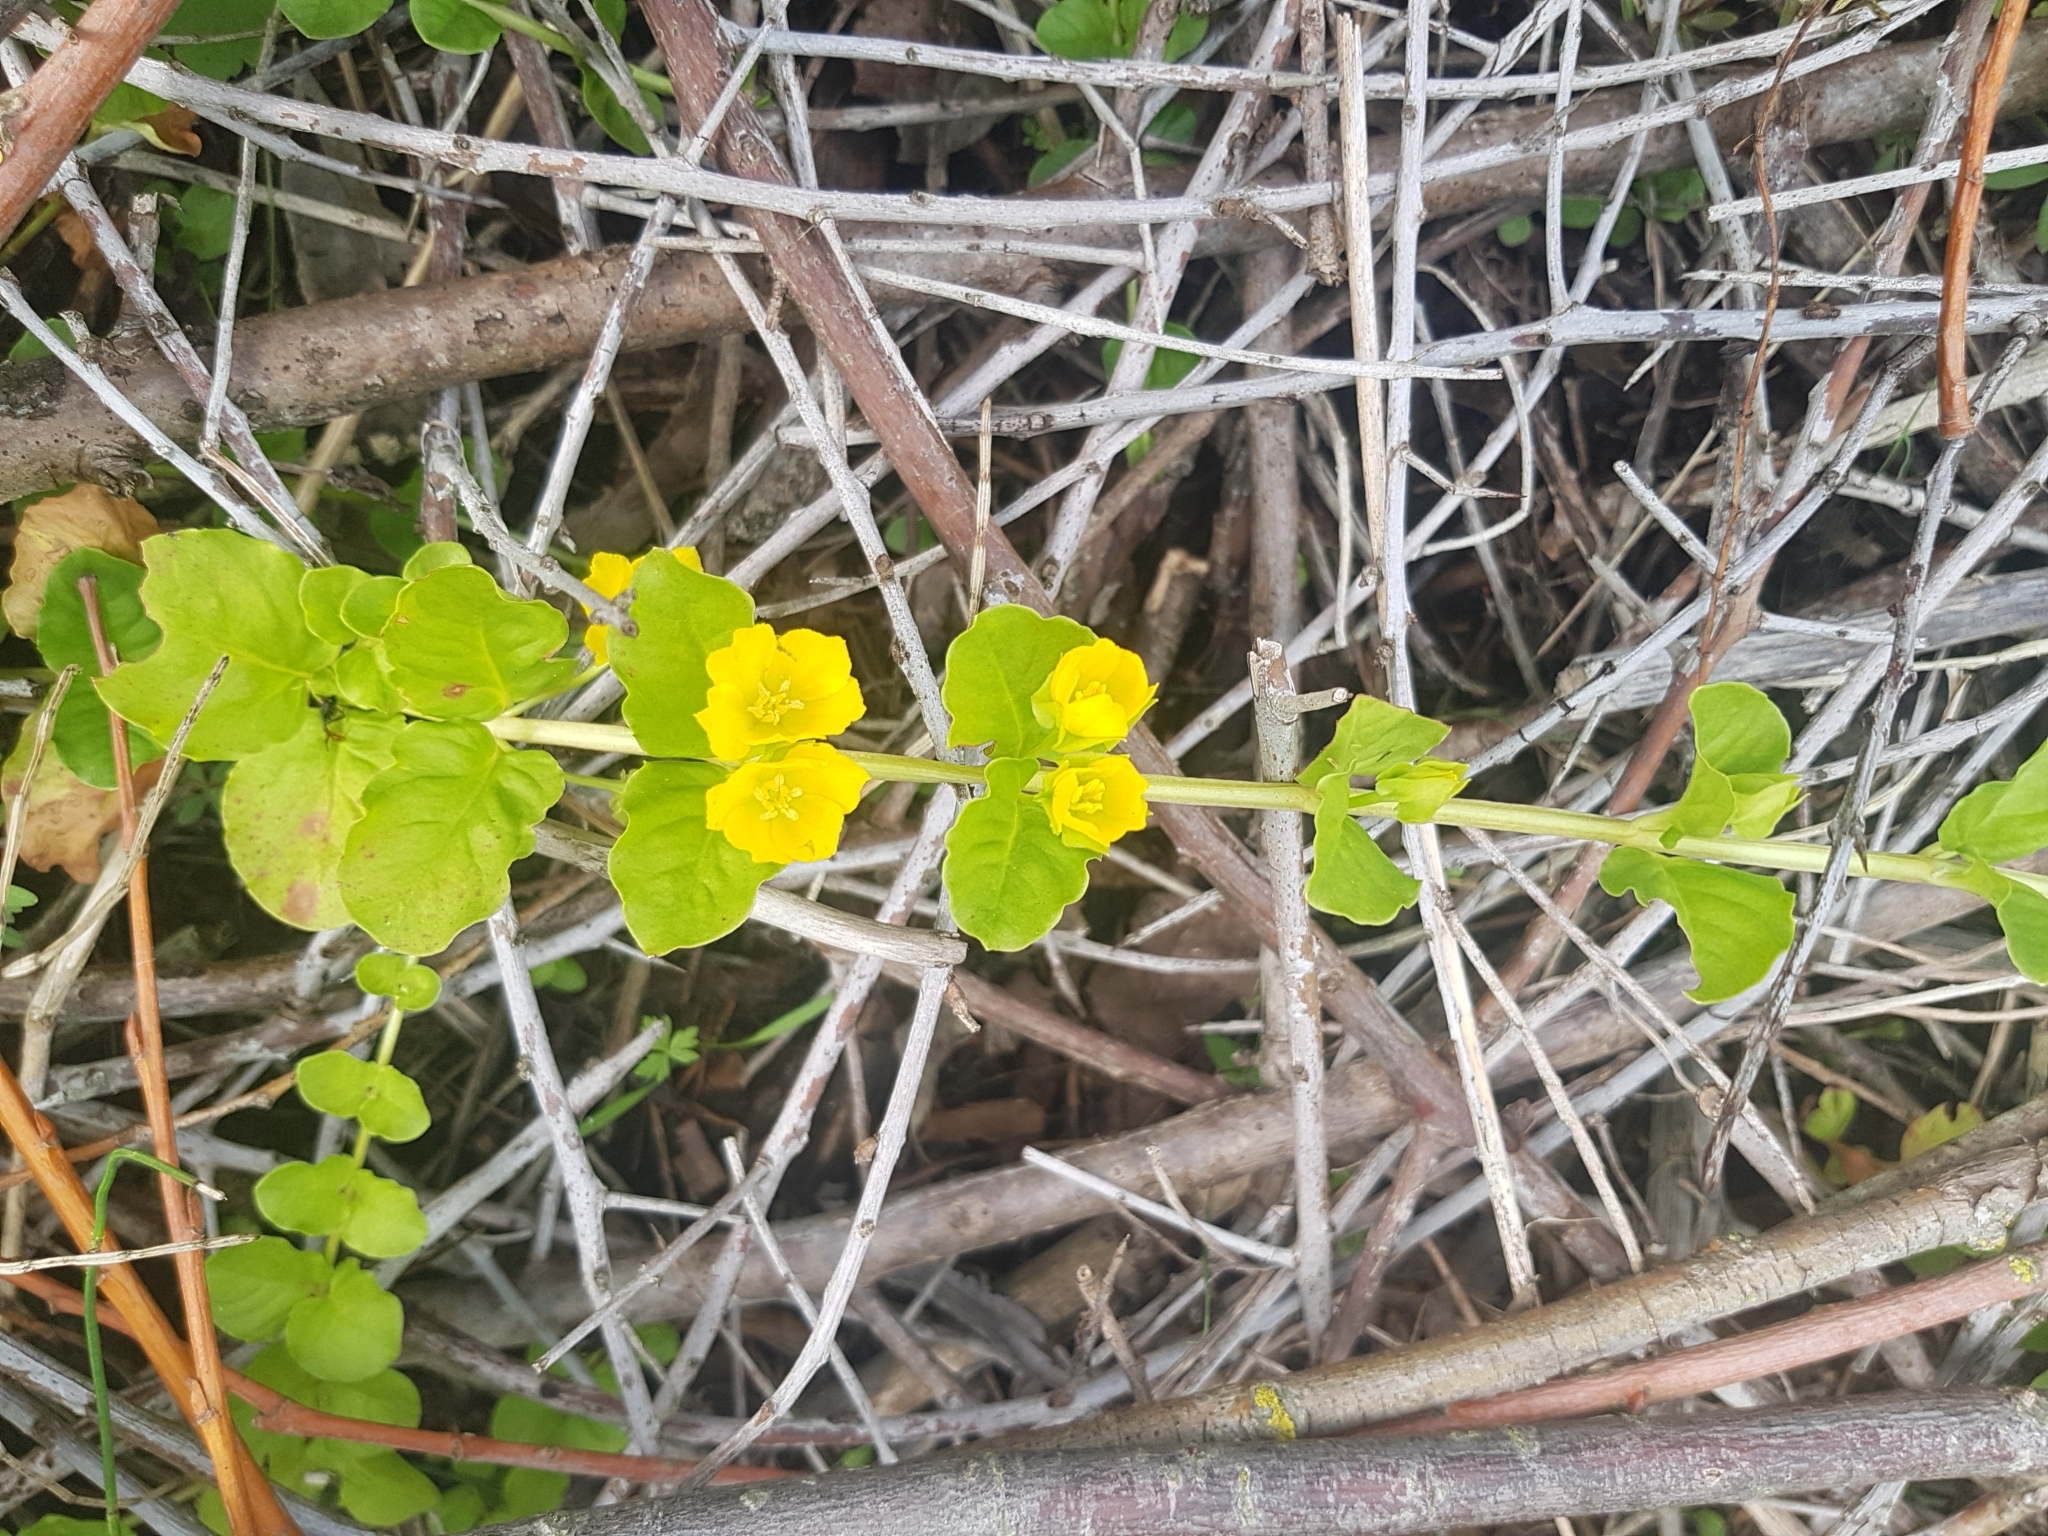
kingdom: Plantae
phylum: Tracheophyta
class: Magnoliopsida
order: Ericales
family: Primulaceae
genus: Lysimachia
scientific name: Lysimachia nummularia
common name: Moneywort
